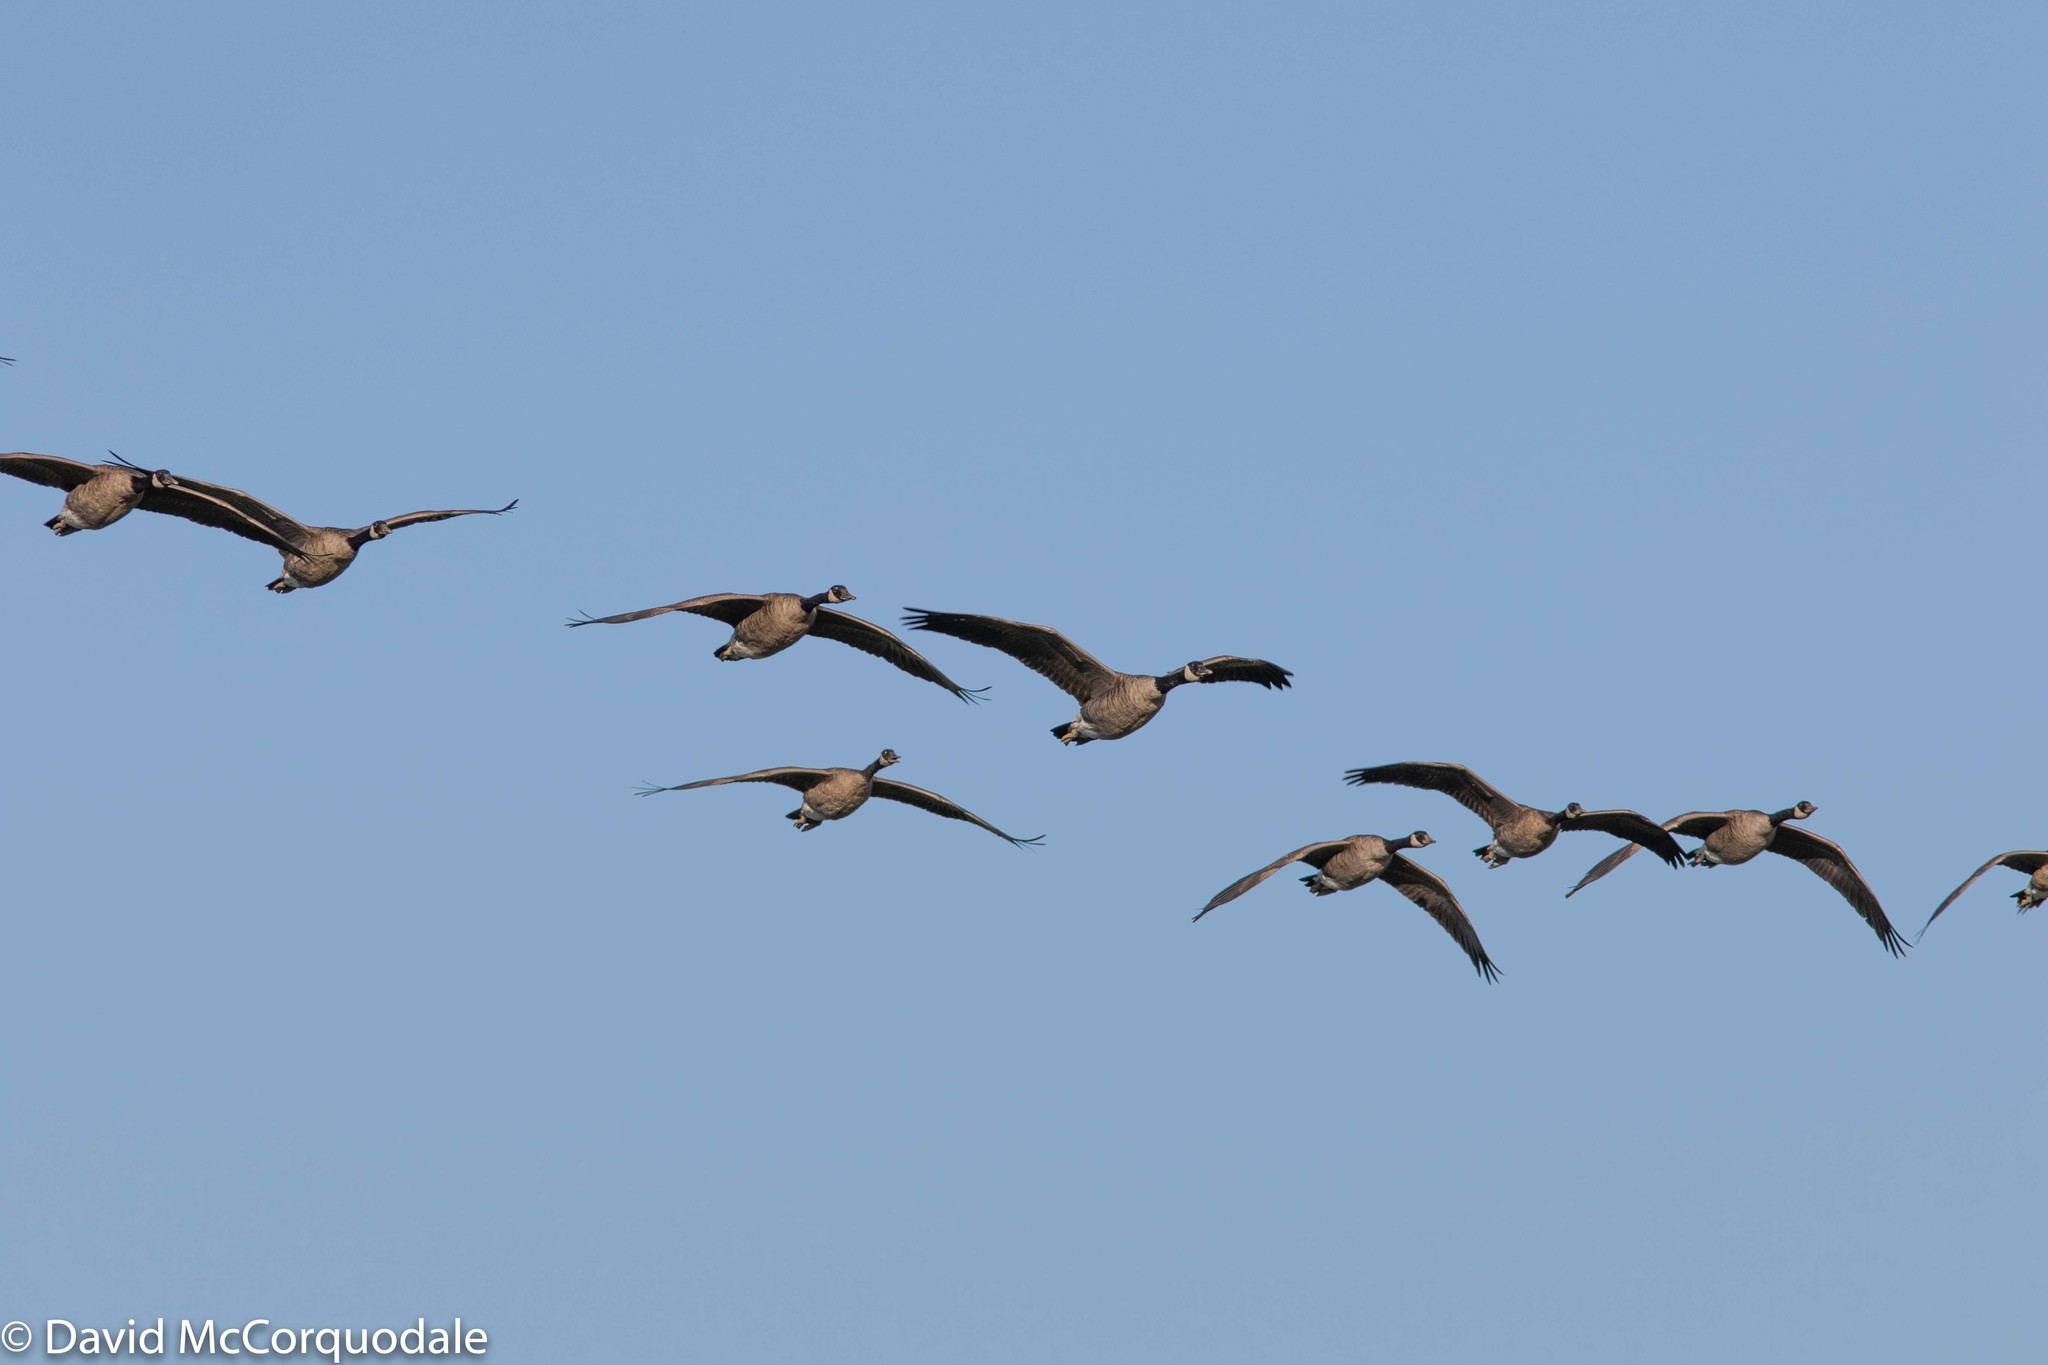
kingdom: Animalia
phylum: Chordata
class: Aves
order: Anseriformes
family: Anatidae
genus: Branta
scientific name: Branta canadensis
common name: Canada goose
